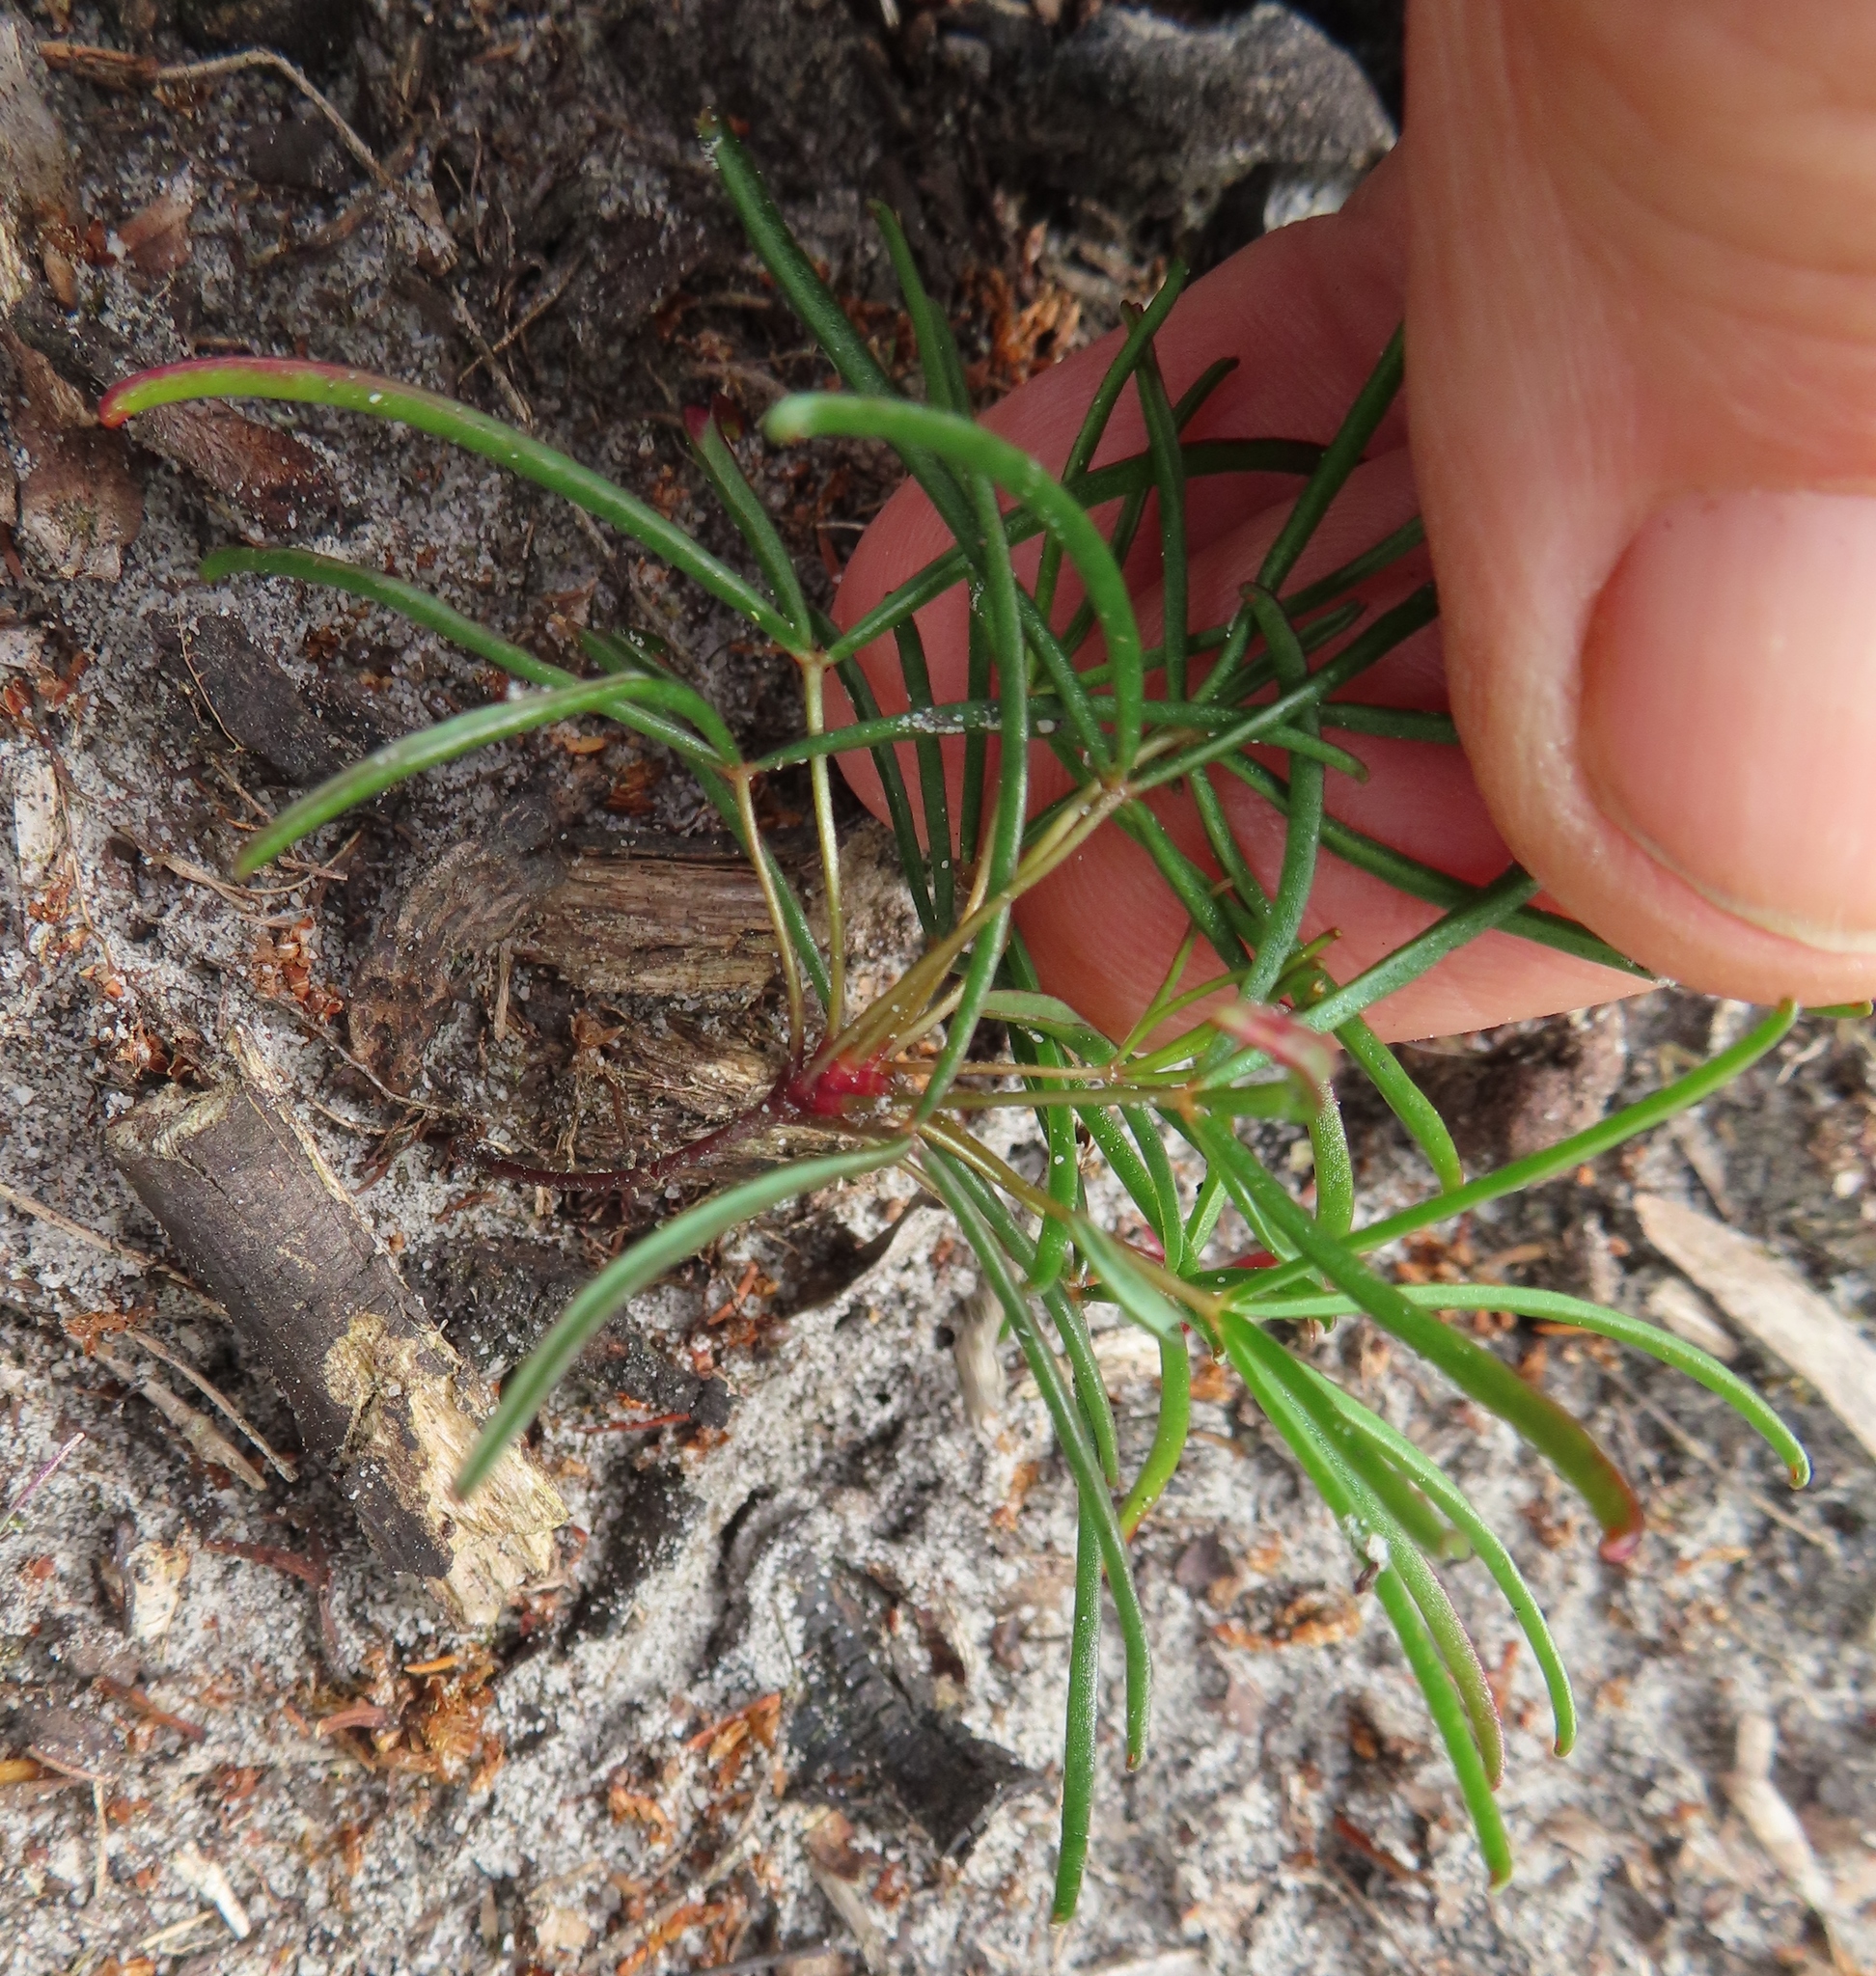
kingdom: Plantae
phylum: Tracheophyta
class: Magnoliopsida
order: Oxalidales
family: Oxalidaceae
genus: Oxalis
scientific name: Oxalis polyphylla
